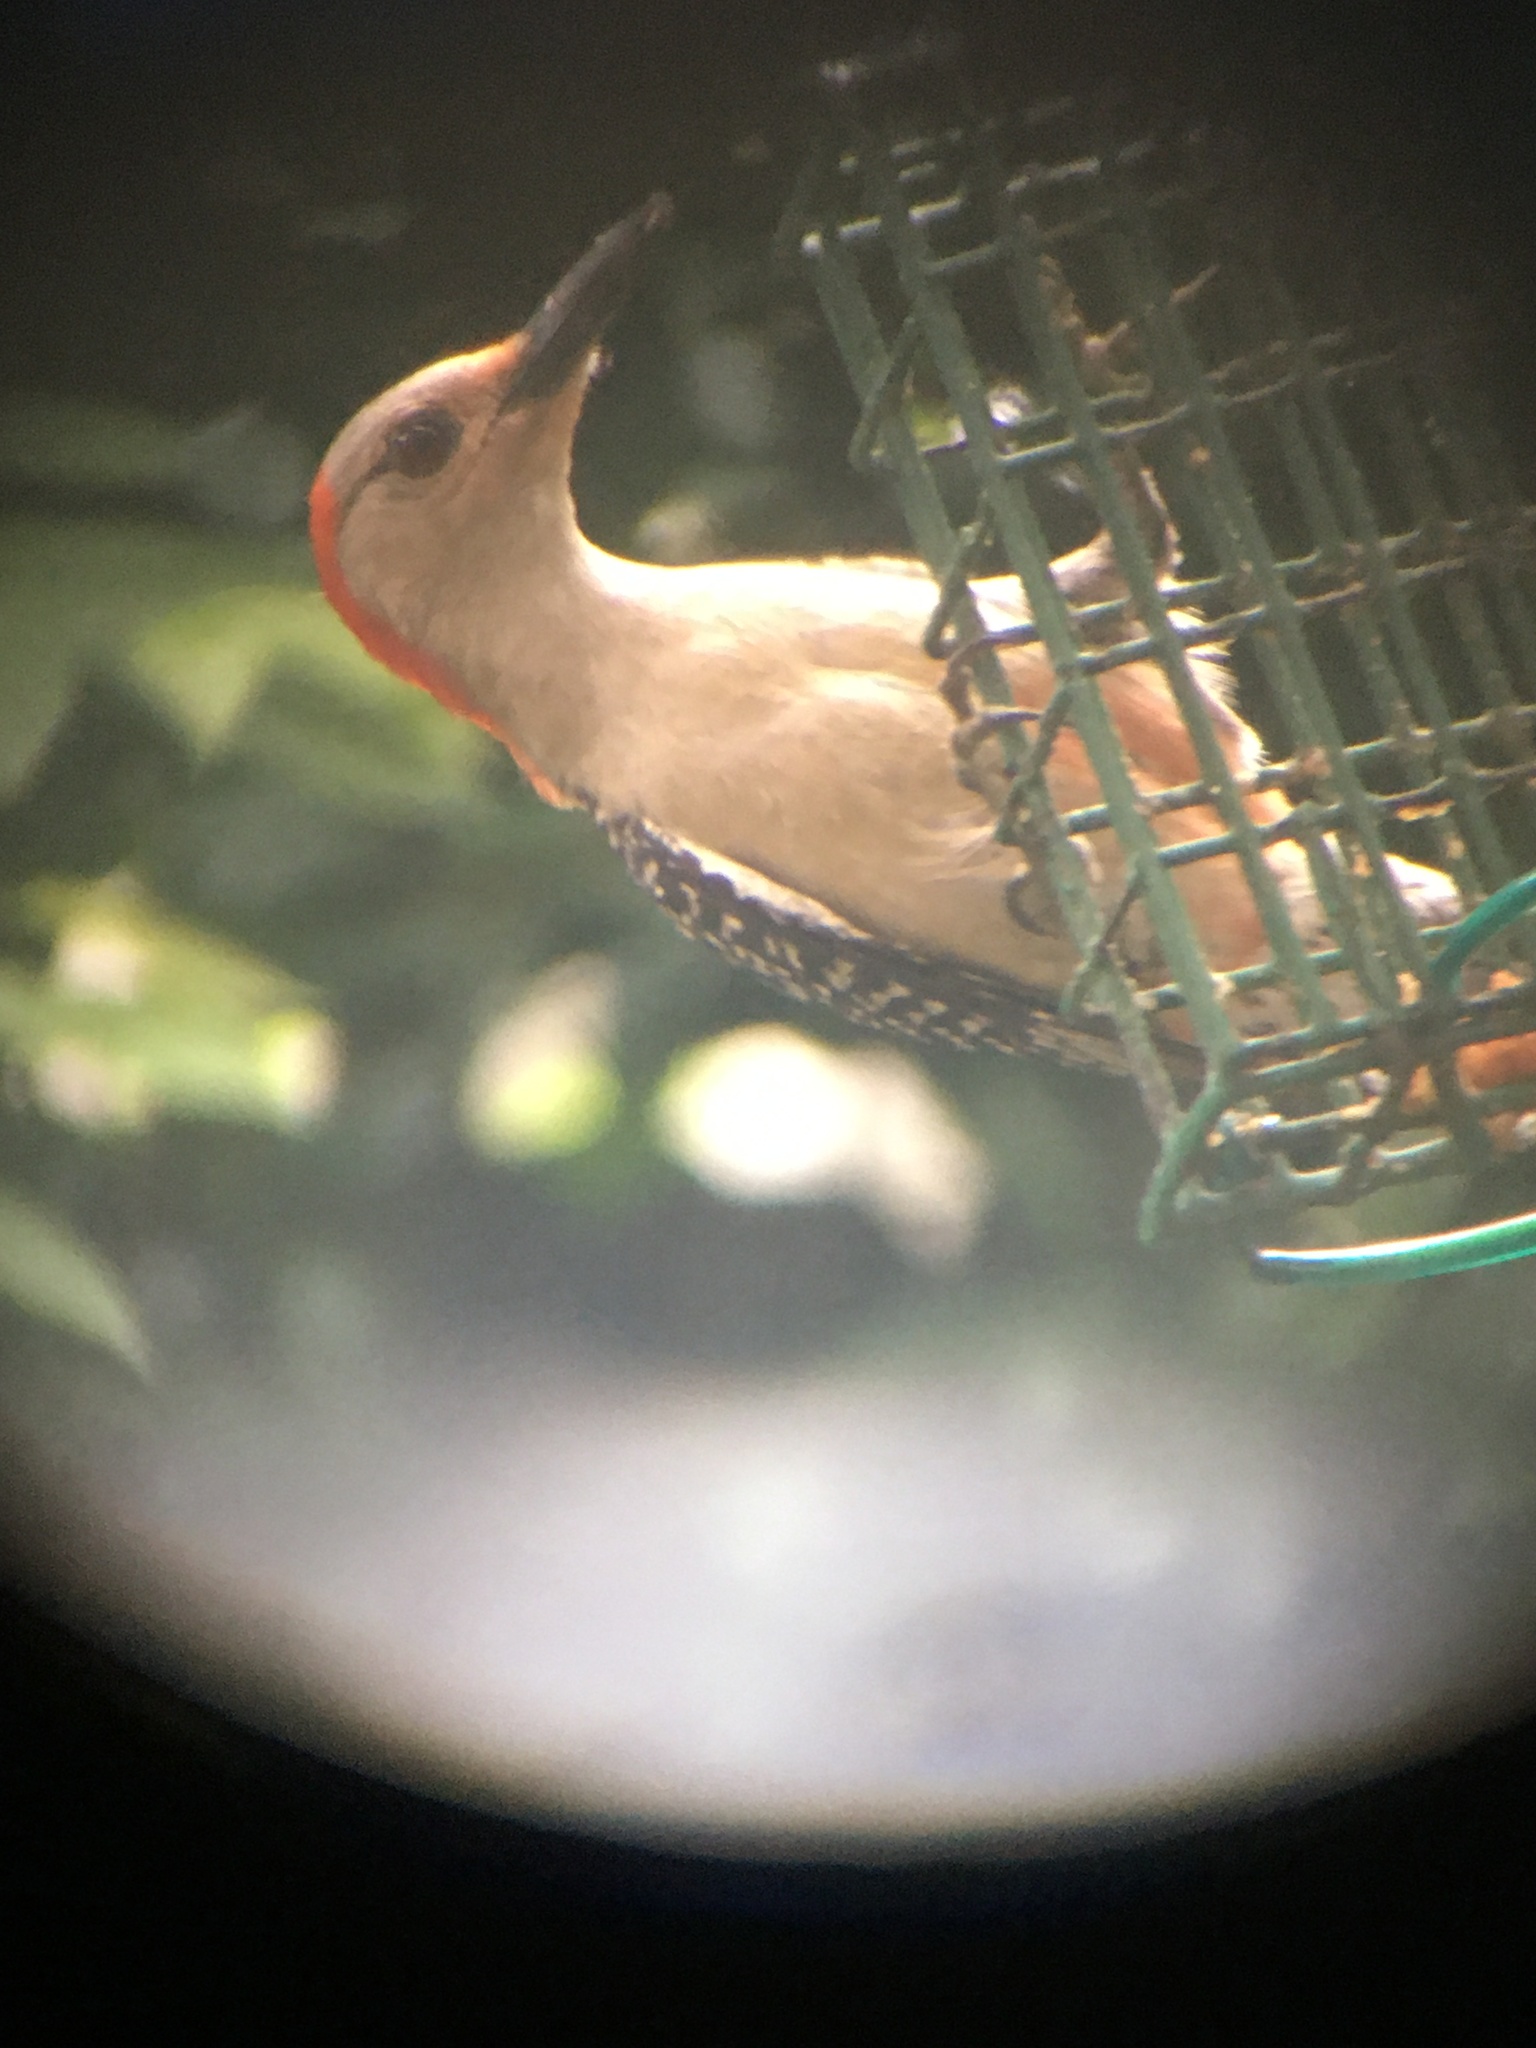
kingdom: Animalia
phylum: Chordata
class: Aves
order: Piciformes
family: Picidae
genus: Melanerpes
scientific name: Melanerpes carolinus
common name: Red-bellied woodpecker
